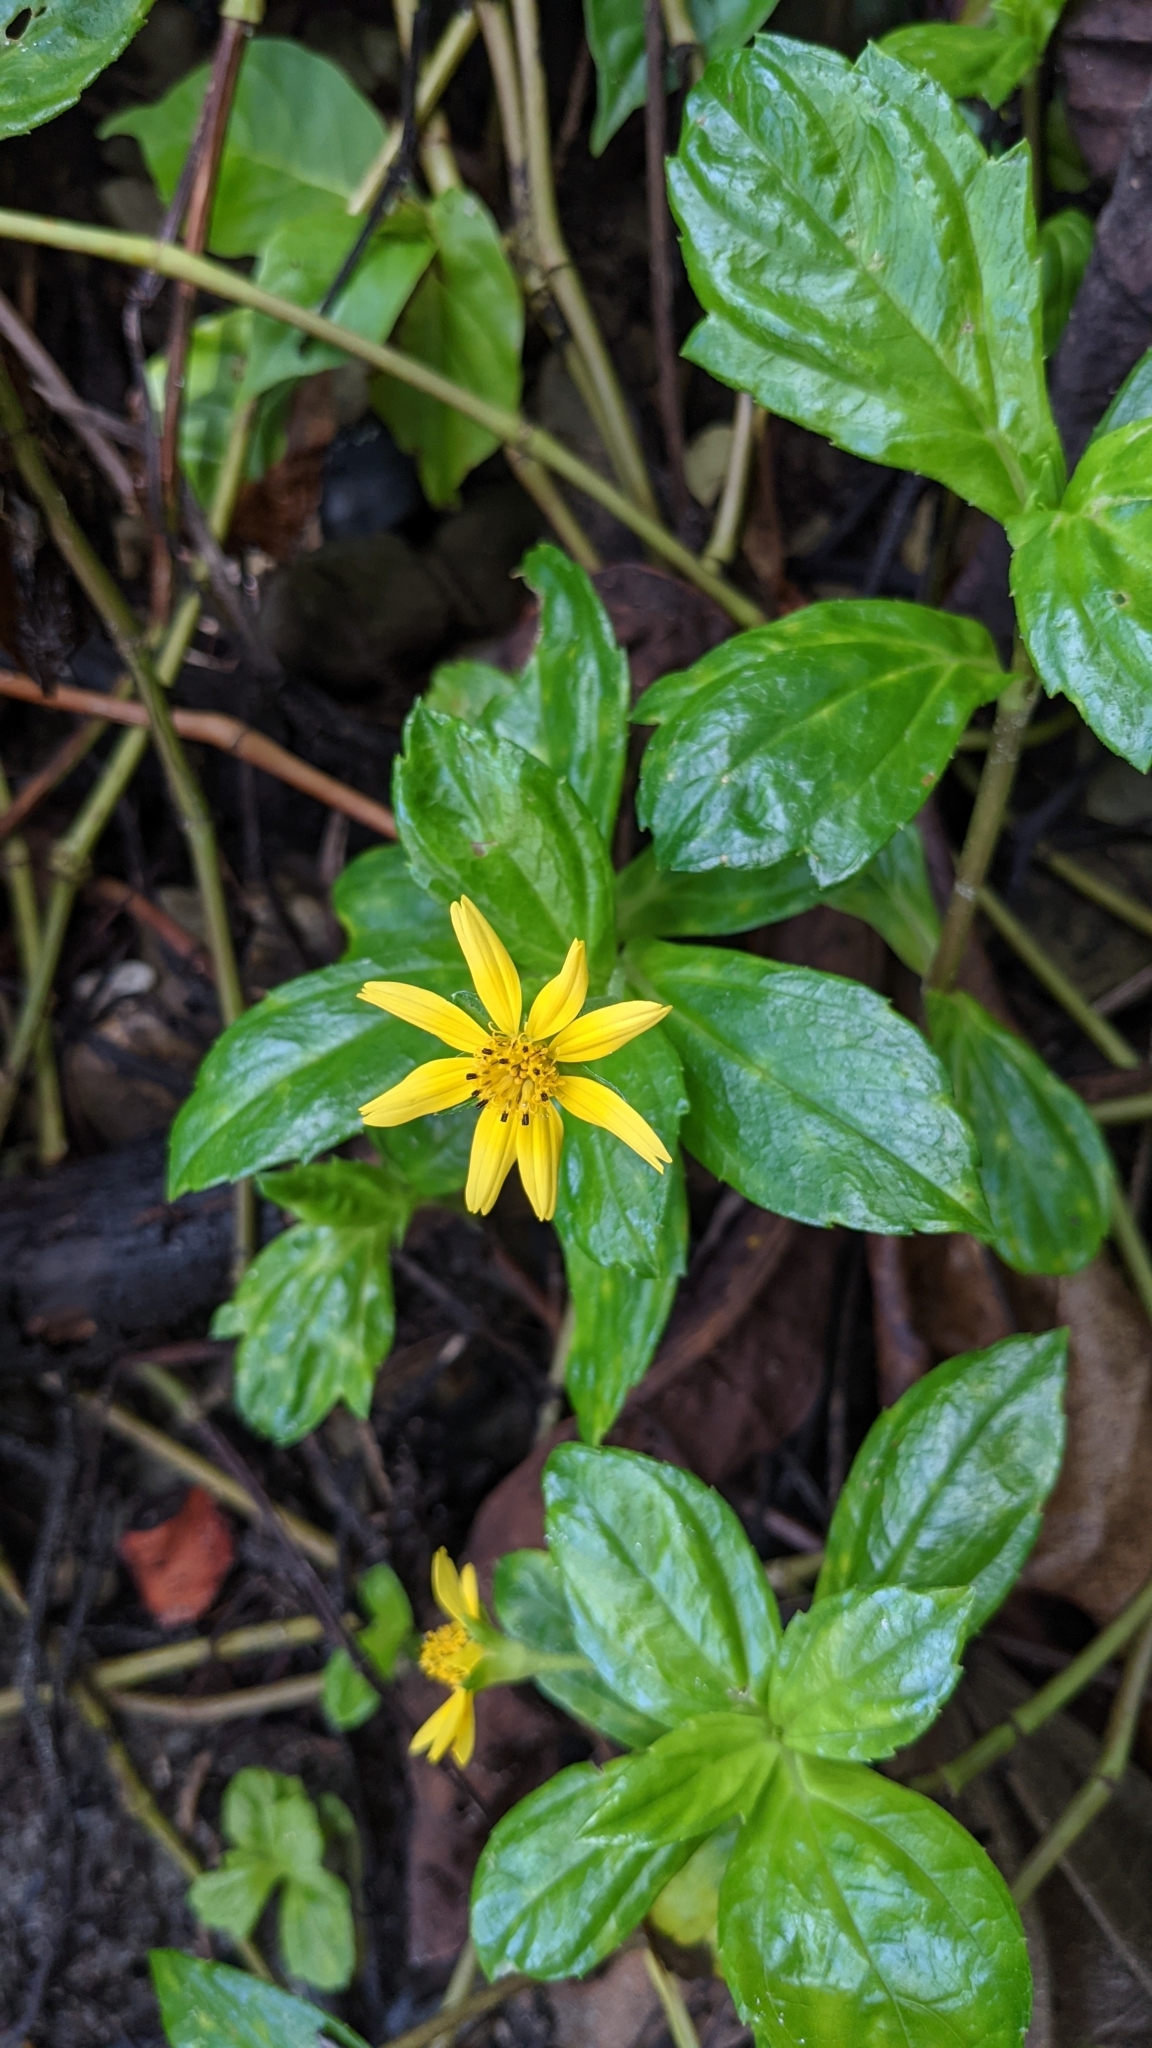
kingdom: Plantae
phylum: Tracheophyta
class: Magnoliopsida
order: Asterales
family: Asteraceae
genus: Sphagneticola
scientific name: Sphagneticola trilobata
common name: Bay biscayne creeping-oxeye
